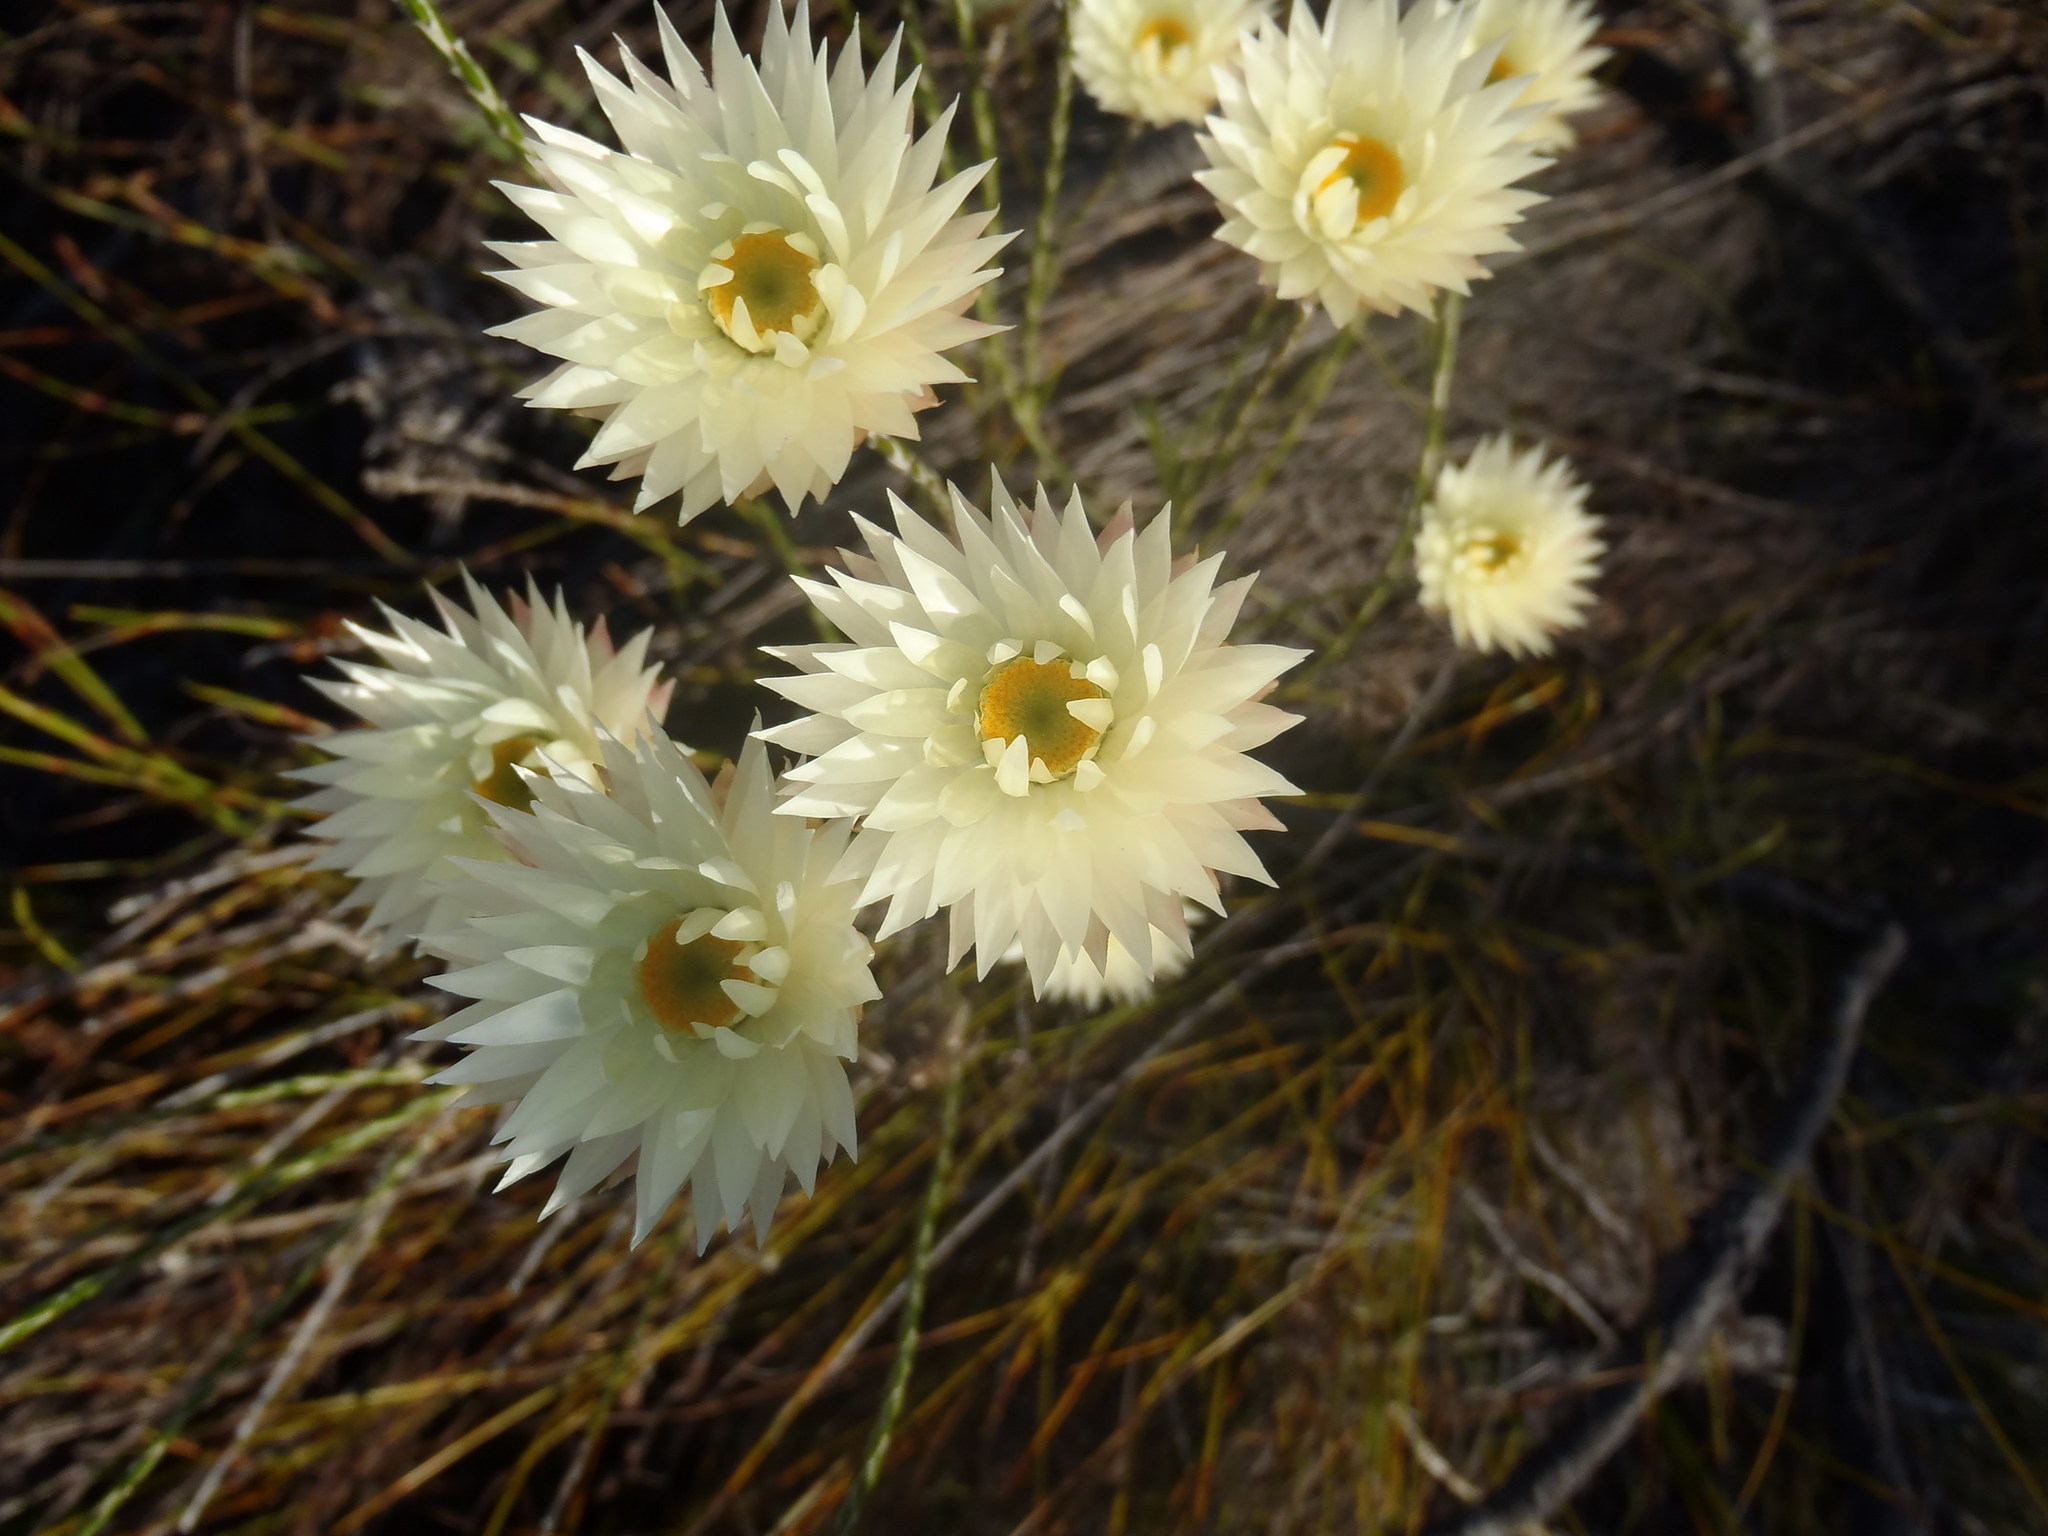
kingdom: Plantae
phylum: Tracheophyta
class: Magnoliopsida
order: Asterales
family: Asteraceae
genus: Edmondia
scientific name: Edmondia sesamoides
